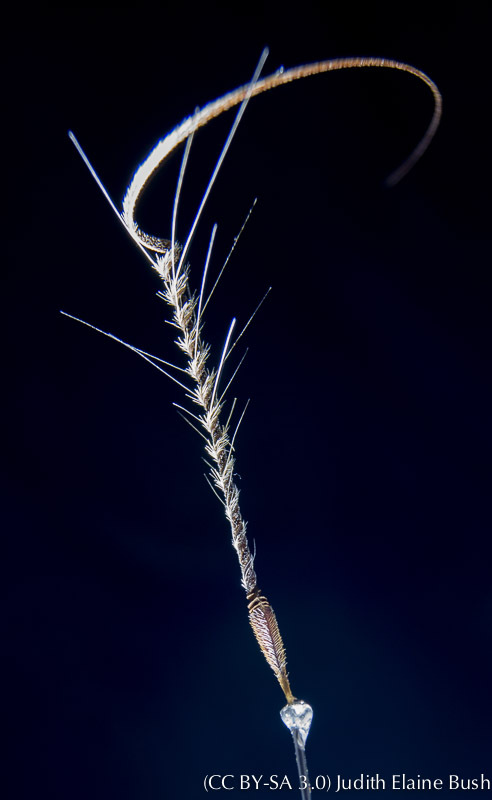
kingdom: Plantae
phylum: Tracheophyta
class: Magnoliopsida
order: Geraniales
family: Geraniaceae
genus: Erodium
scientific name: Erodium botrys
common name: Mediterranean stork's-bill
